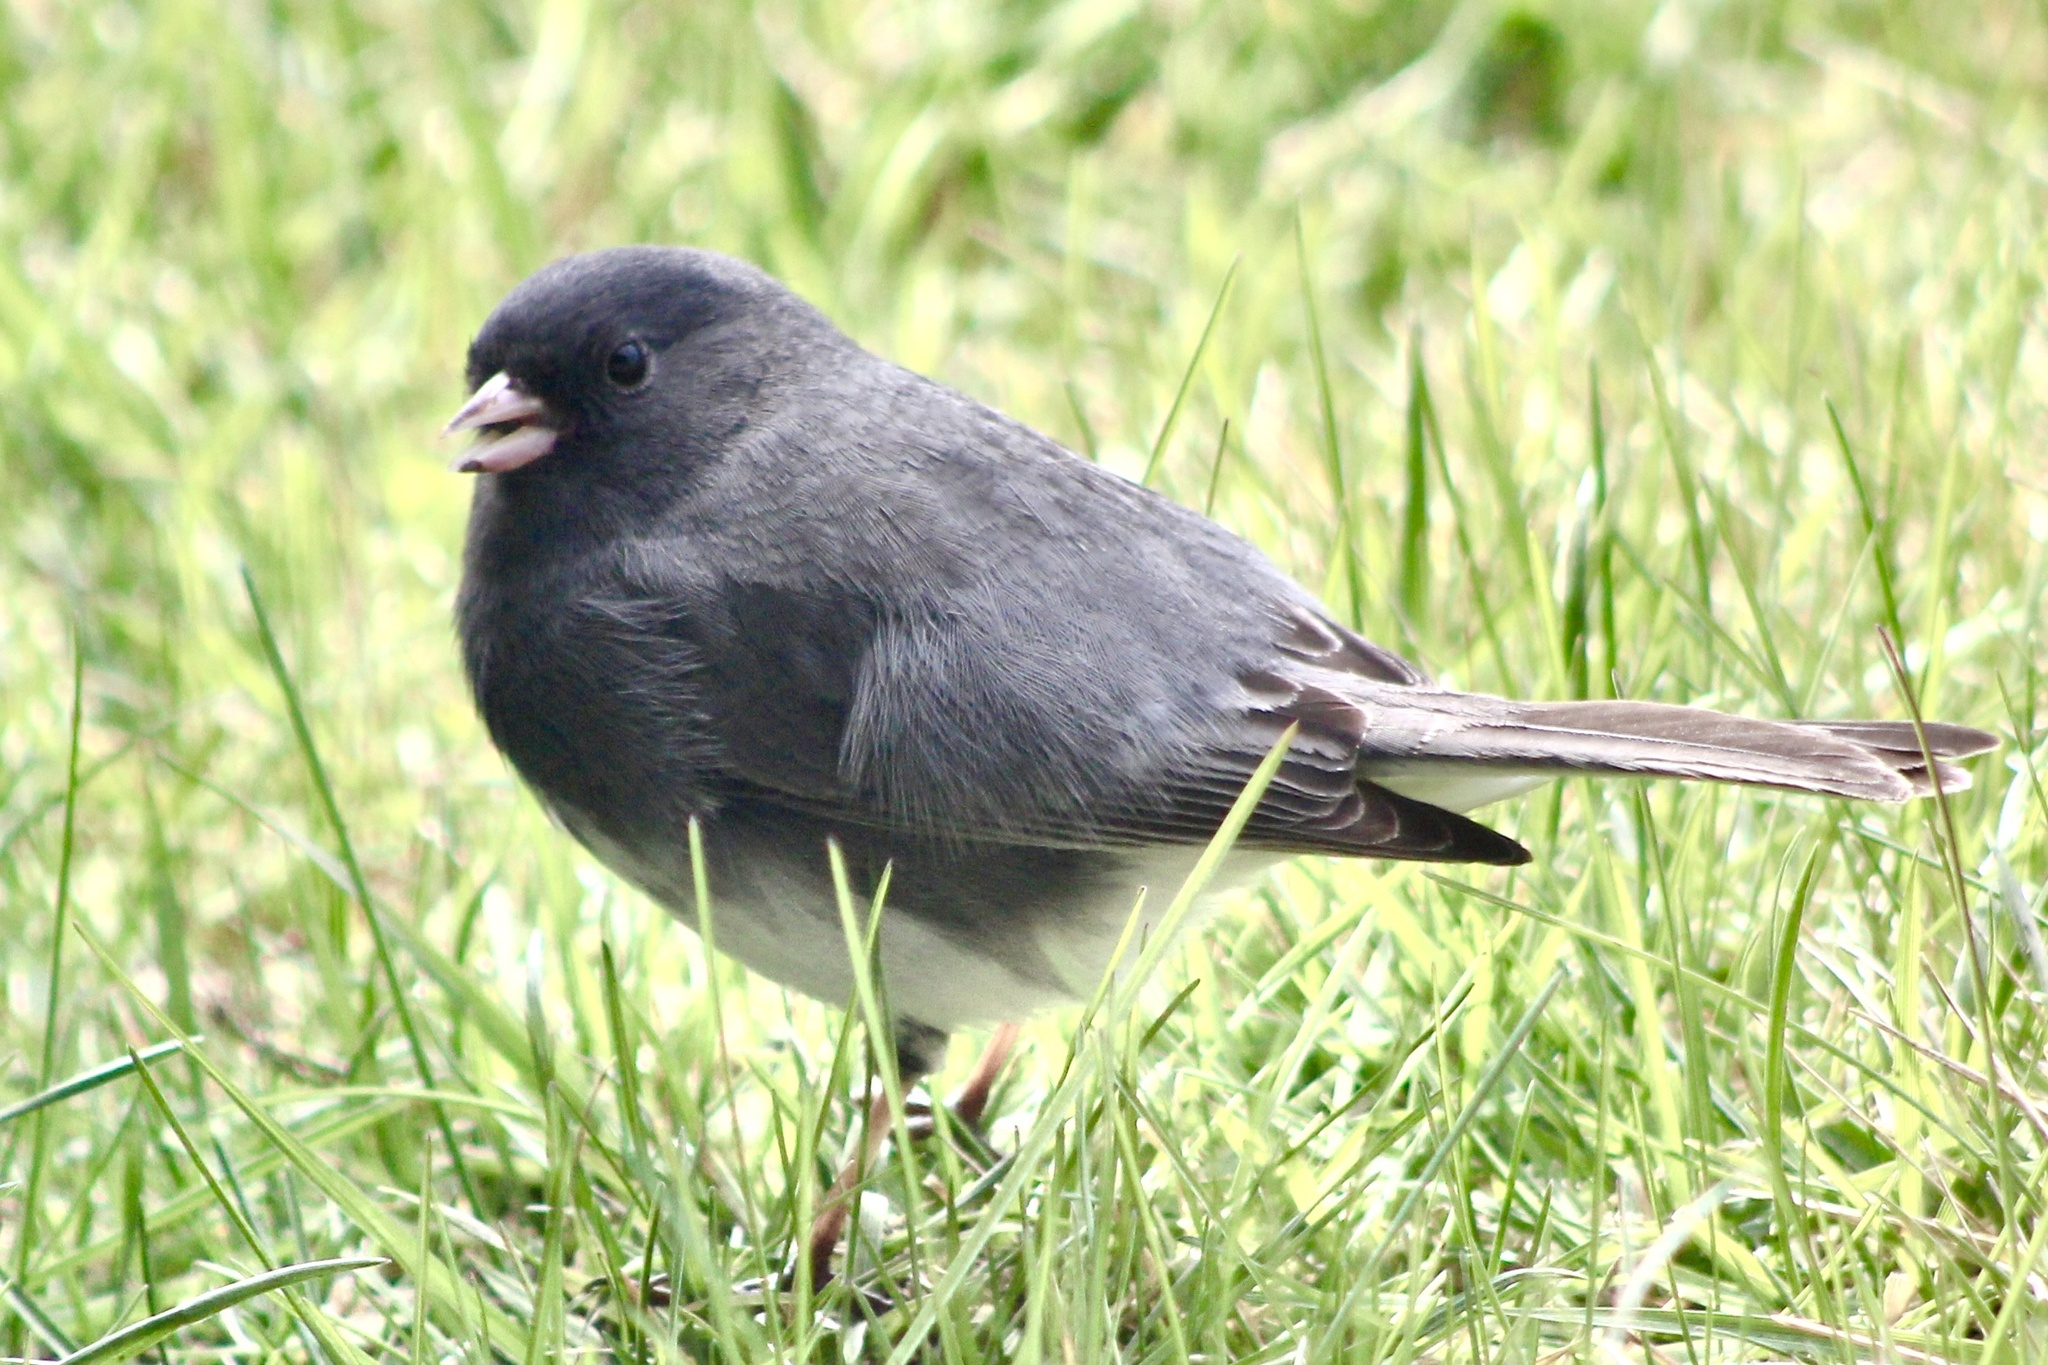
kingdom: Animalia
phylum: Chordata
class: Aves
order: Passeriformes
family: Passerellidae
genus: Junco
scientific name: Junco hyemalis
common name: Dark-eyed junco
